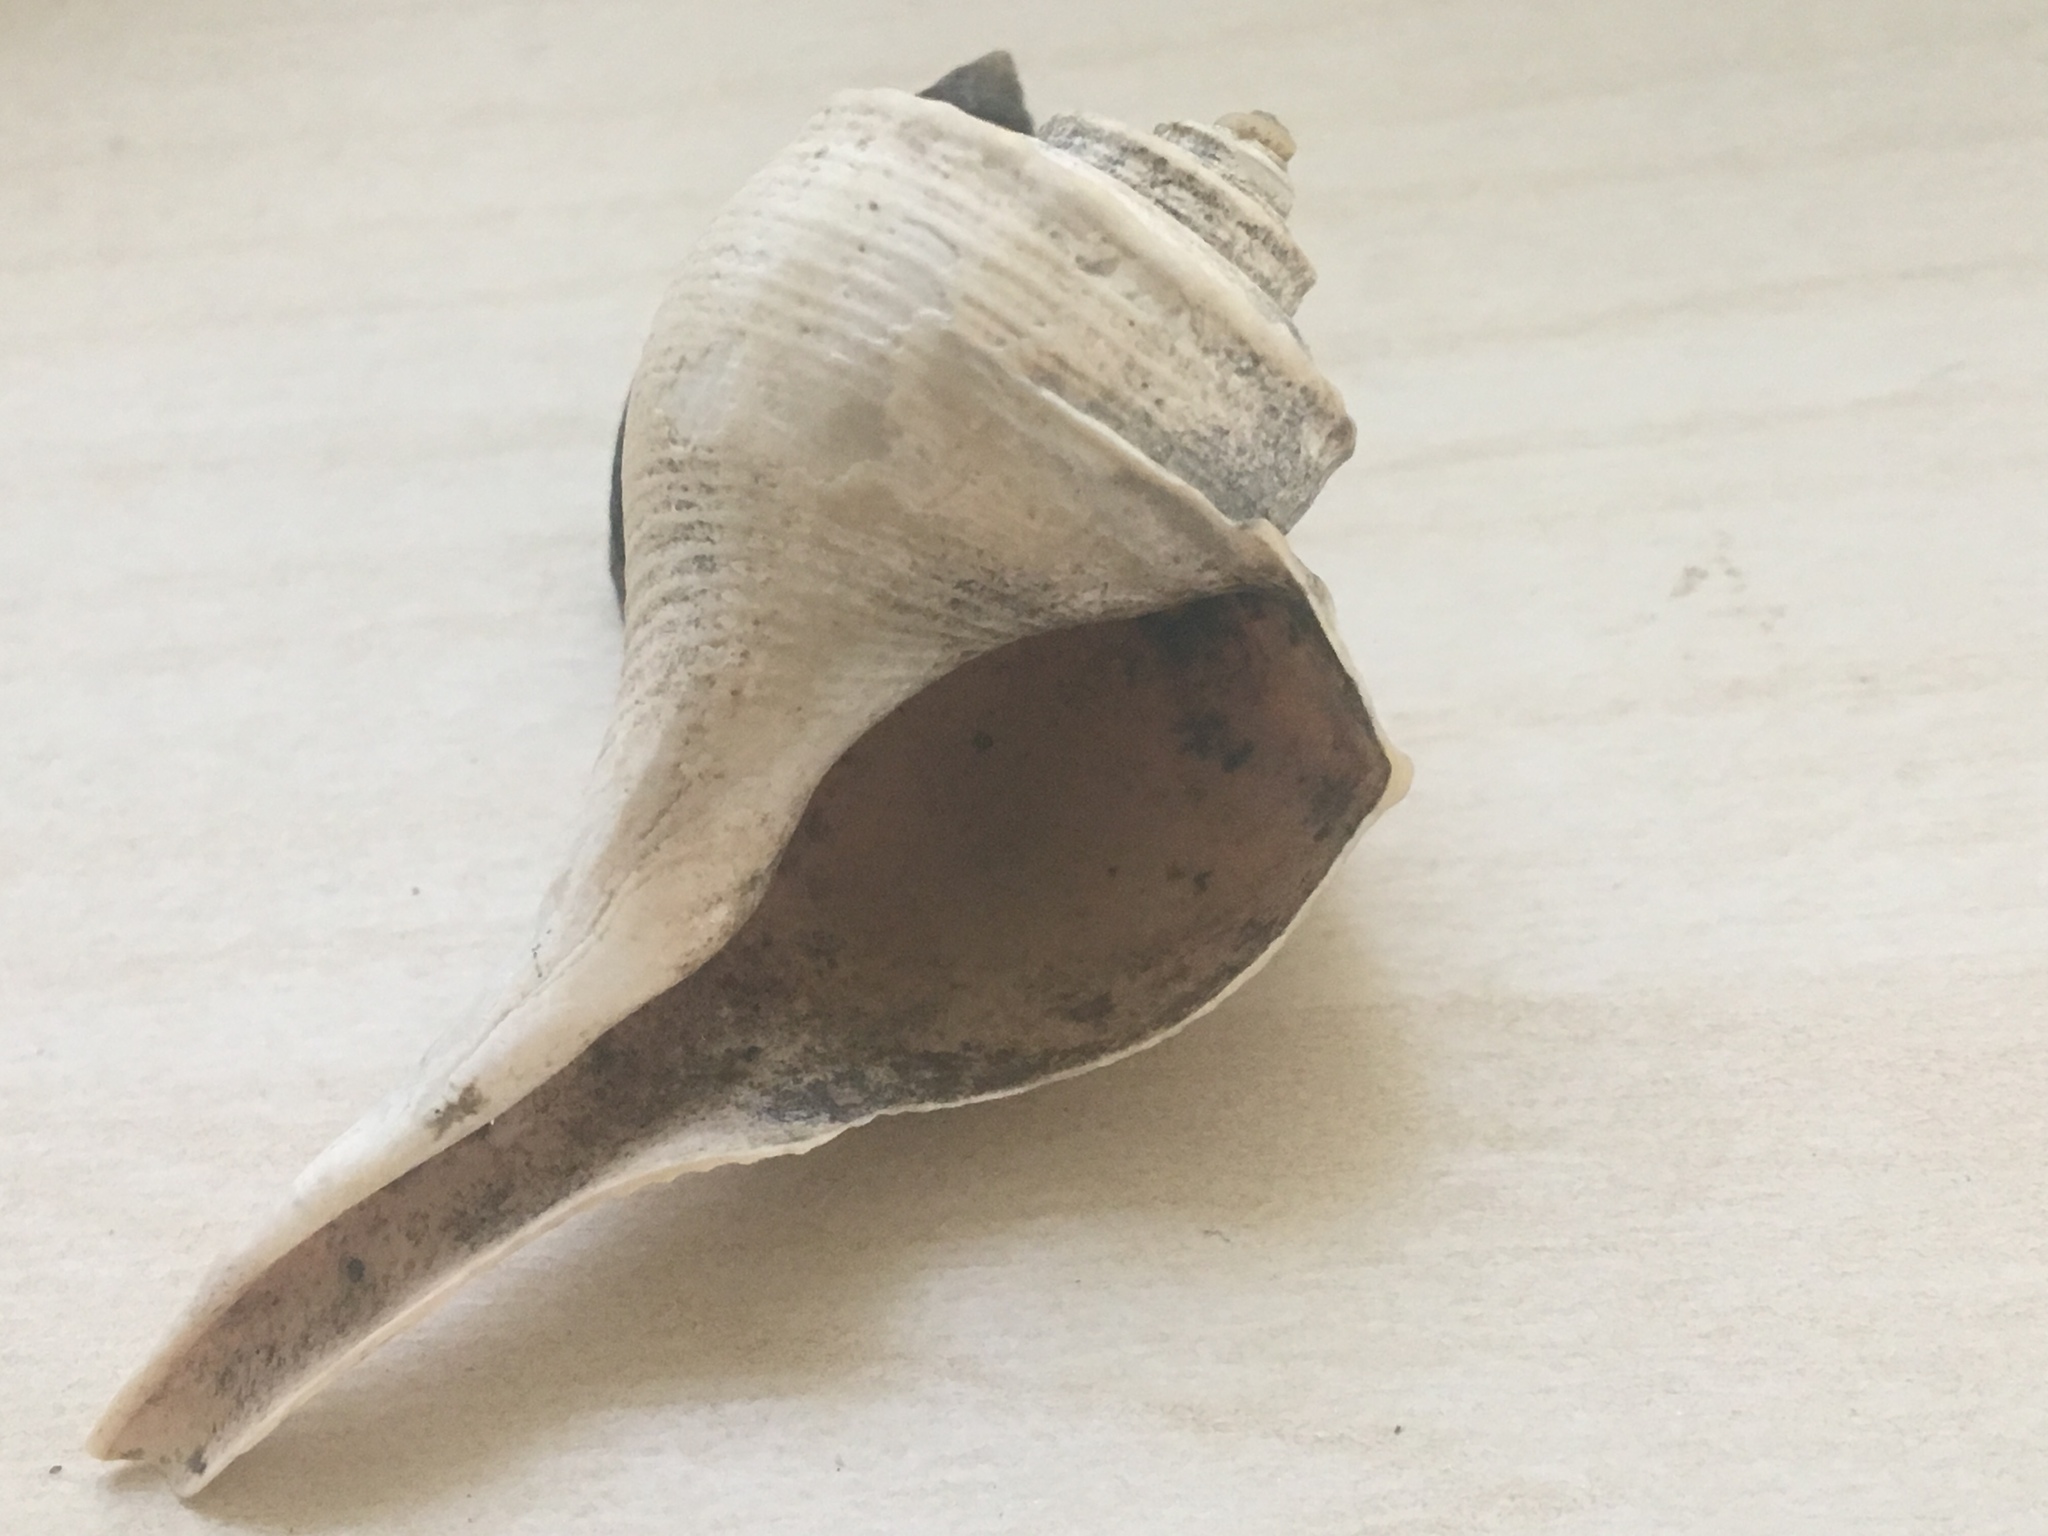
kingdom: Animalia
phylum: Mollusca
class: Gastropoda
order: Neogastropoda
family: Busyconidae
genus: Busycotypus
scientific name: Busycotypus canaliculatus
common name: Channeled whelk
